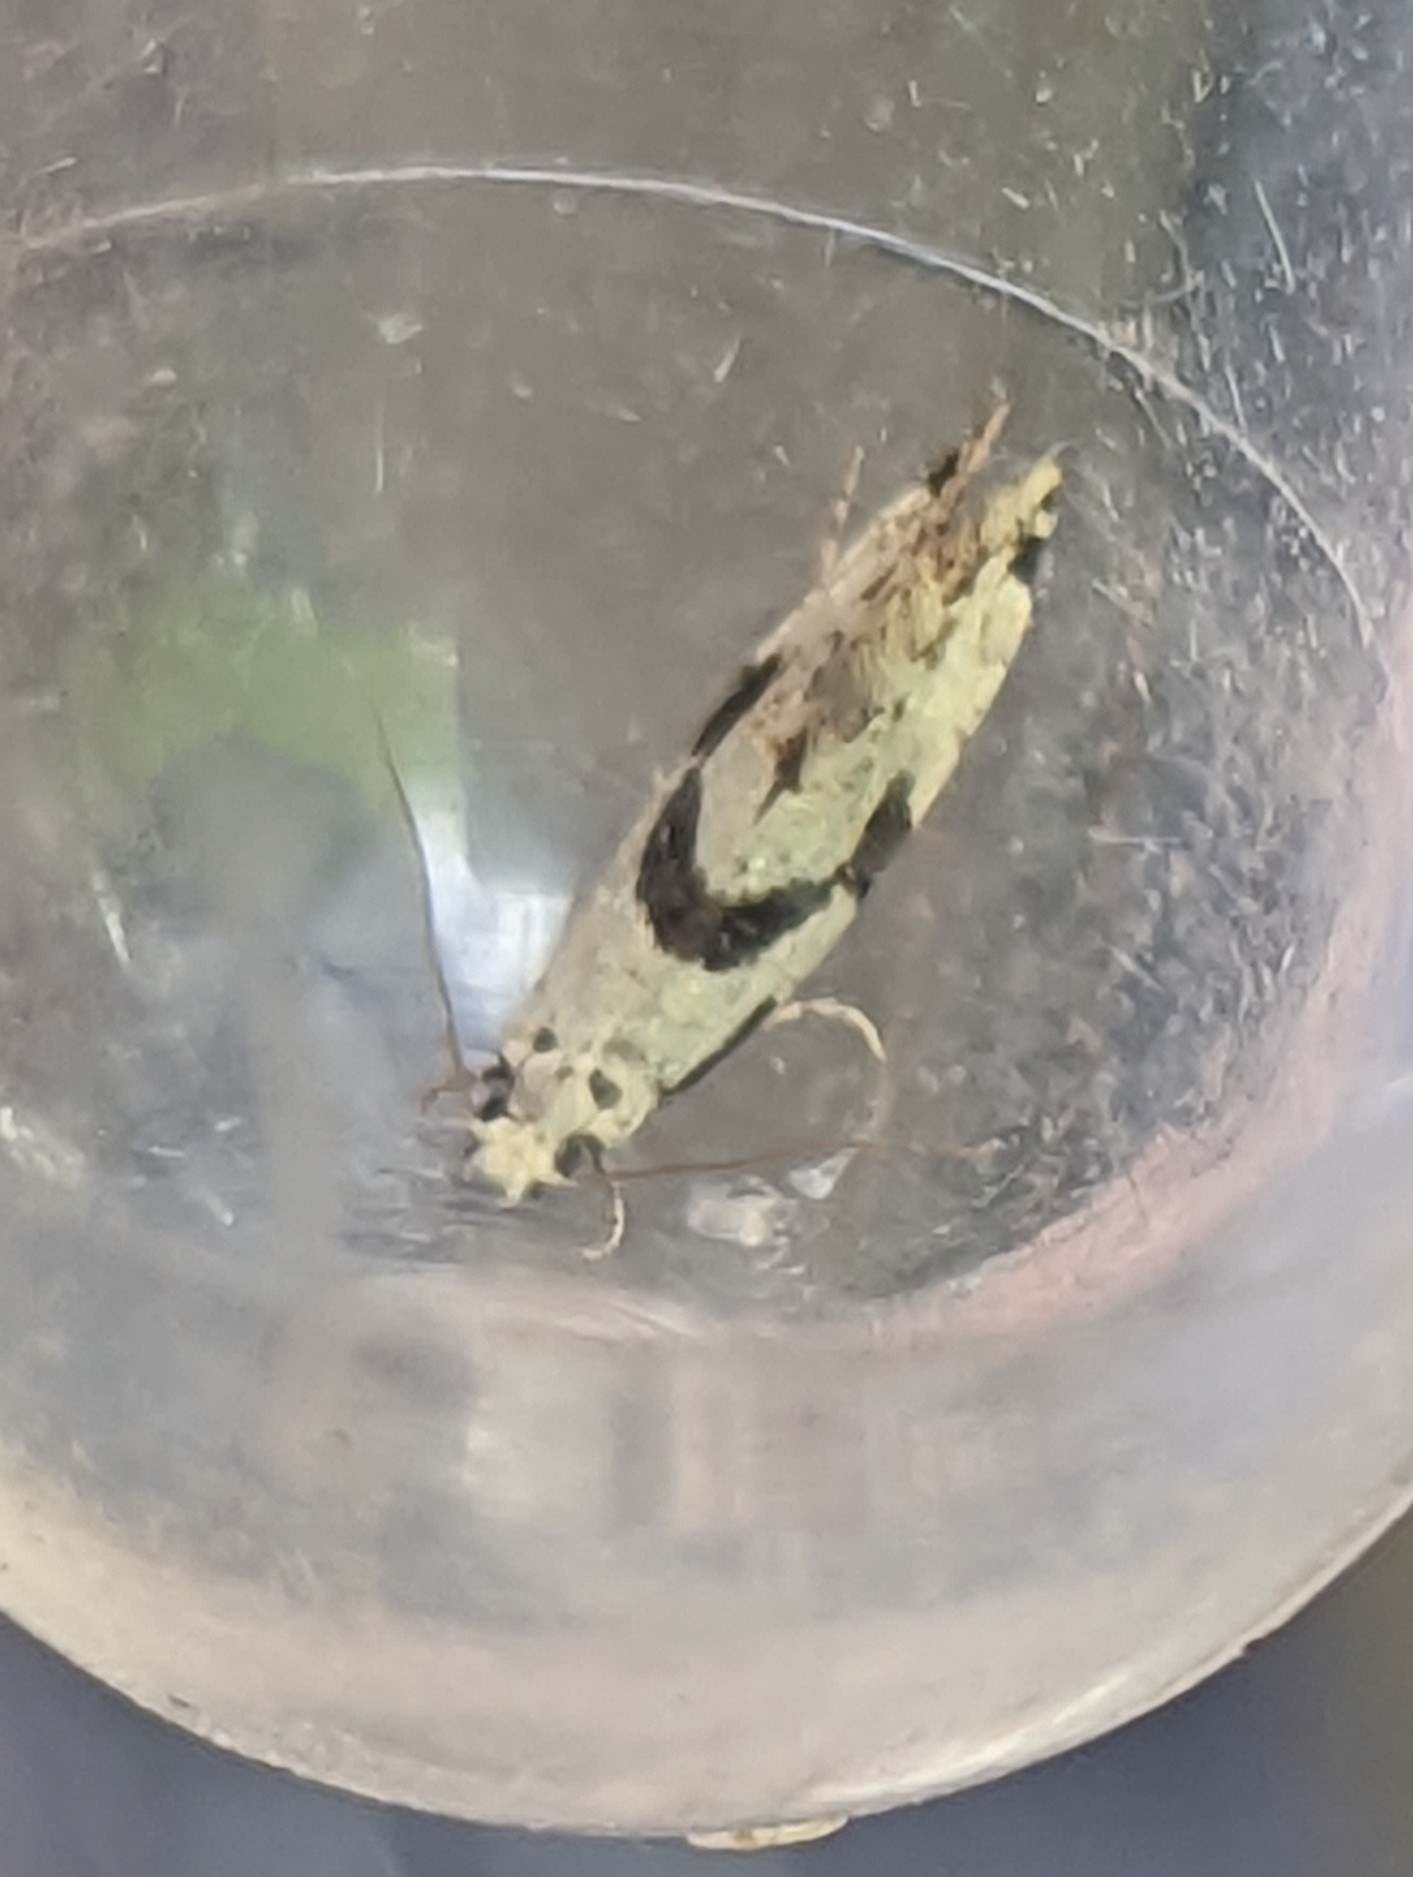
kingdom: Animalia
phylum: Arthropoda
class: Insecta
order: Lepidoptera
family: Tineidae
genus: Nemapogon
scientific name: Nemapogon clematella
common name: Barred white clothes
